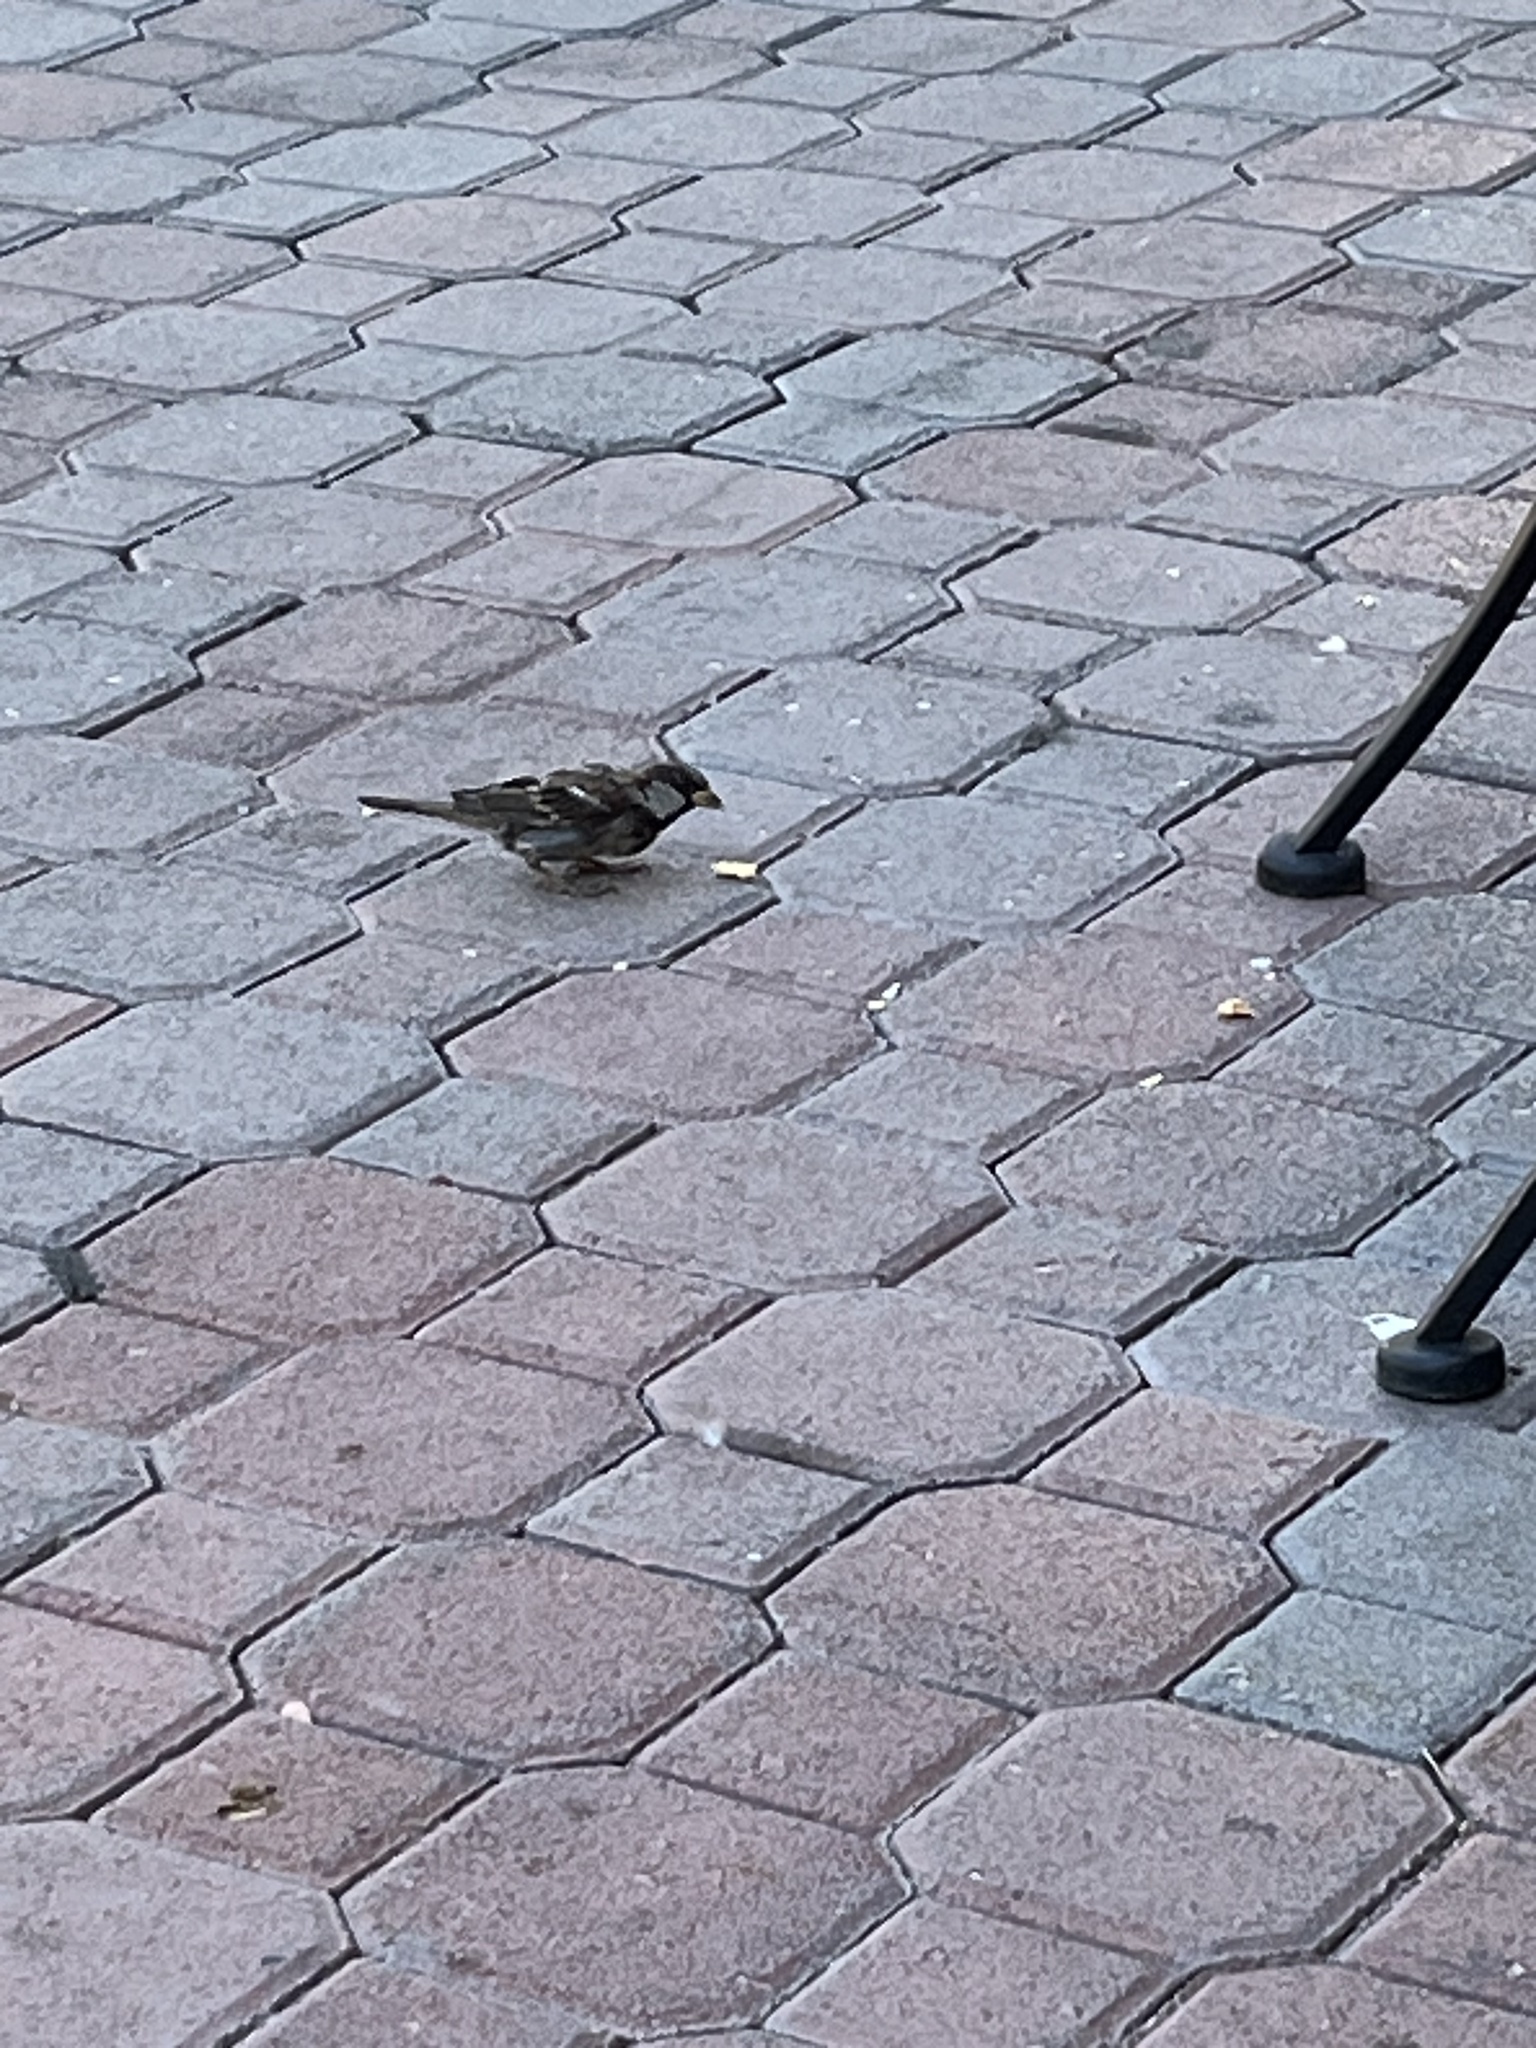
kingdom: Animalia
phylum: Chordata
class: Aves
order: Passeriformes
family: Passeridae
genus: Passer
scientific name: Passer domesticus
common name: House sparrow
